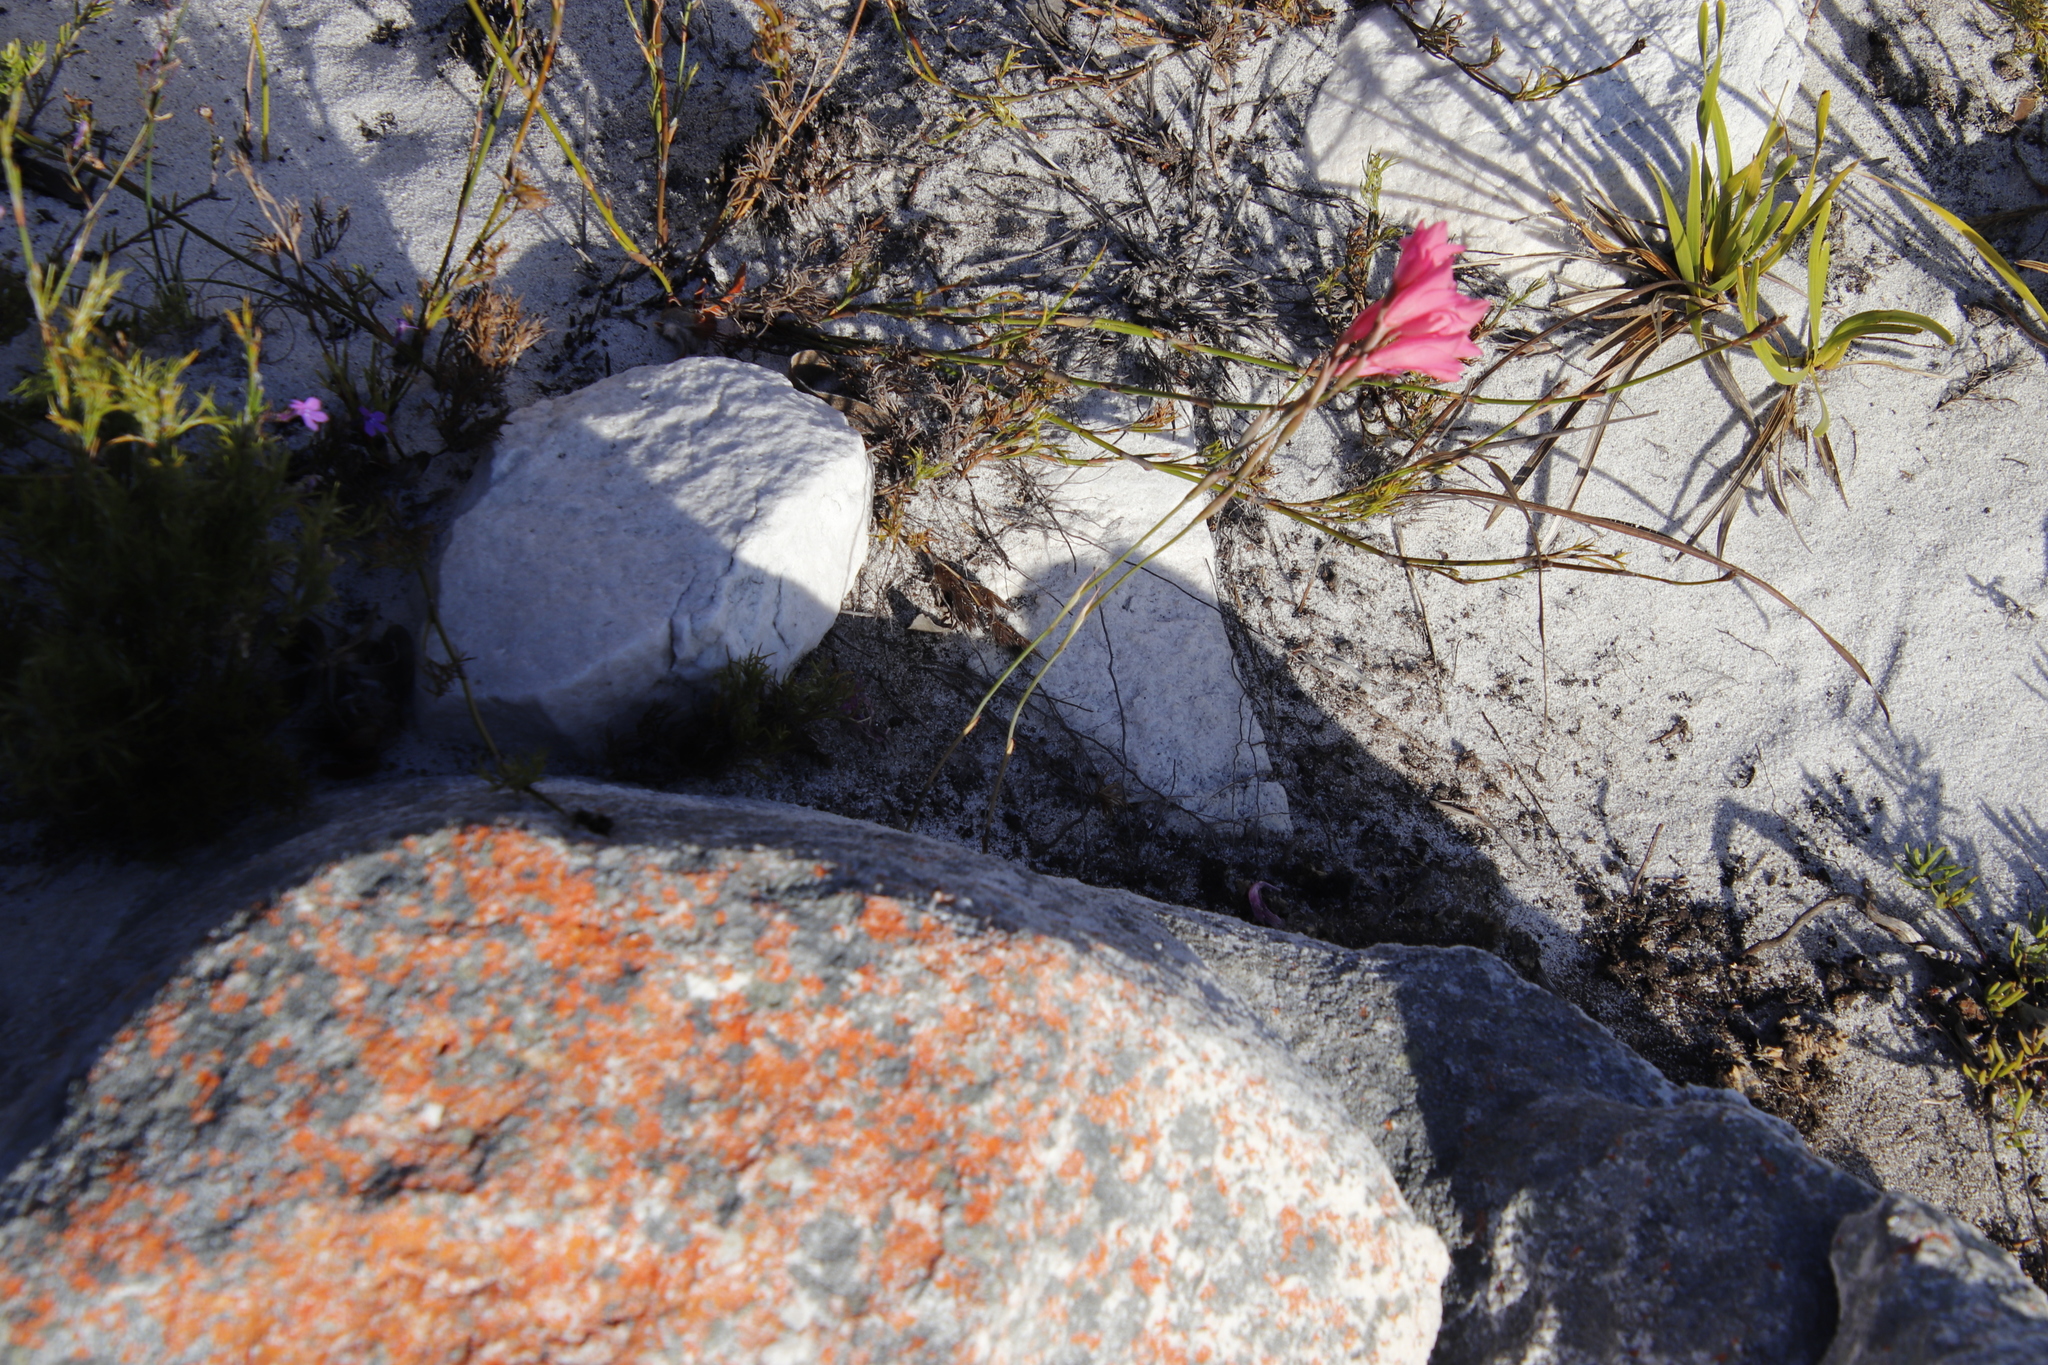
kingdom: Plantae
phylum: Tracheophyta
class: Liliopsida
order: Asparagales
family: Iridaceae
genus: Gladiolus
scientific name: Gladiolus brevifolius
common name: March pypie
